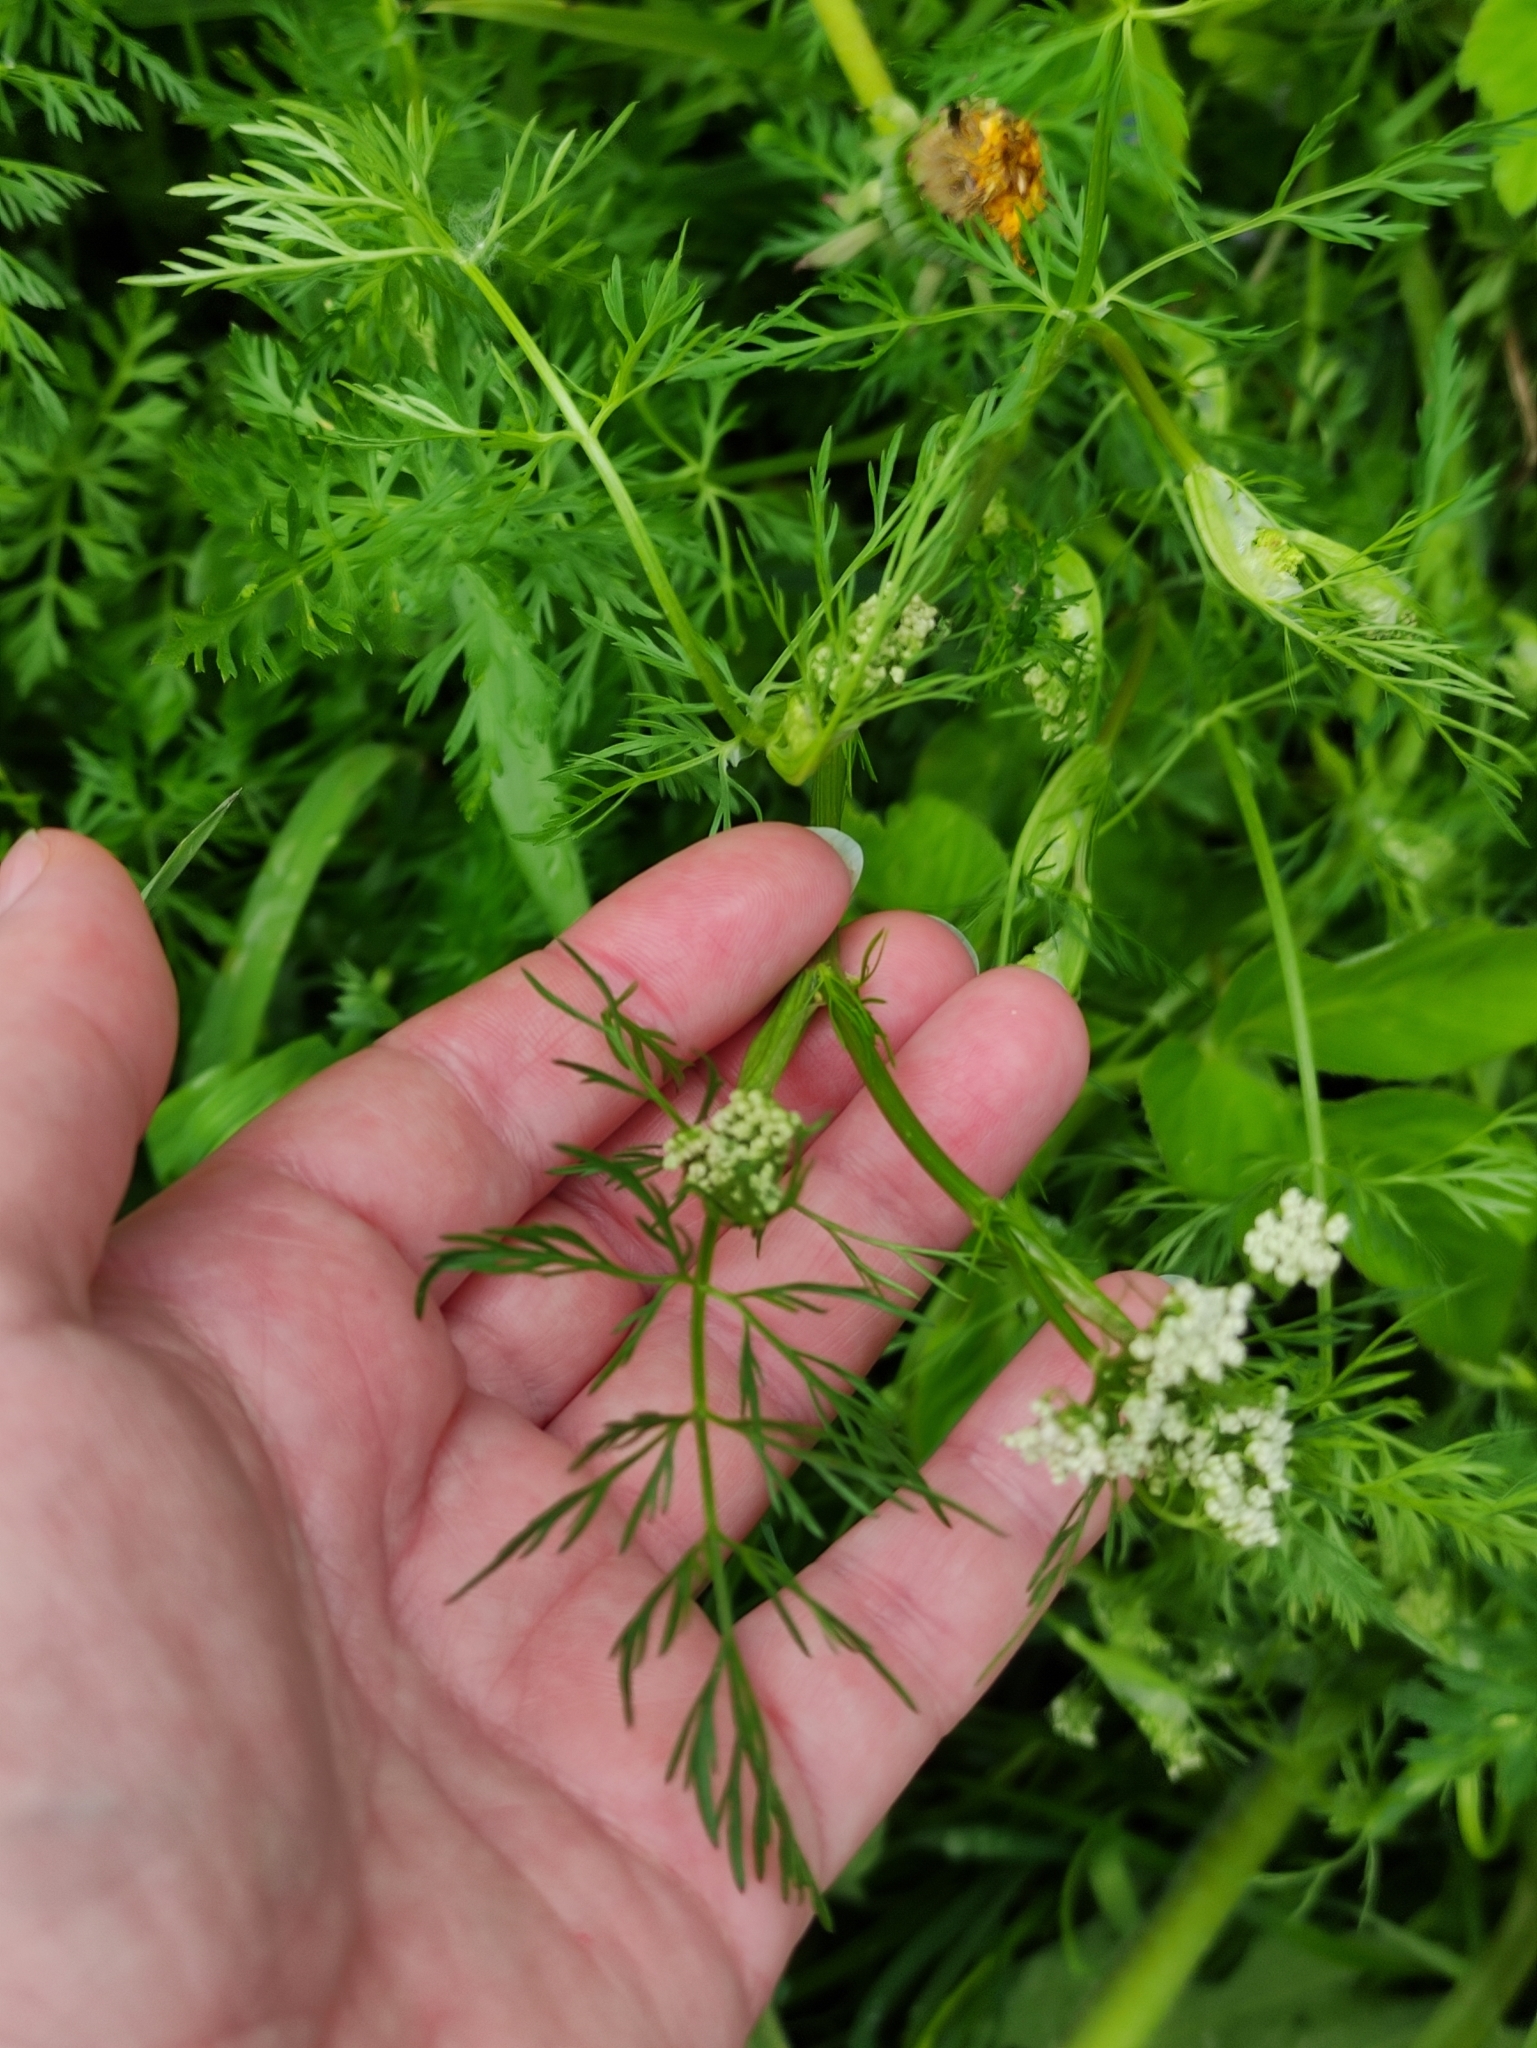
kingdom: Plantae
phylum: Tracheophyta
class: Magnoliopsida
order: Apiales
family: Apiaceae
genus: Carum
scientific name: Carum carvi
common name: Caraway
